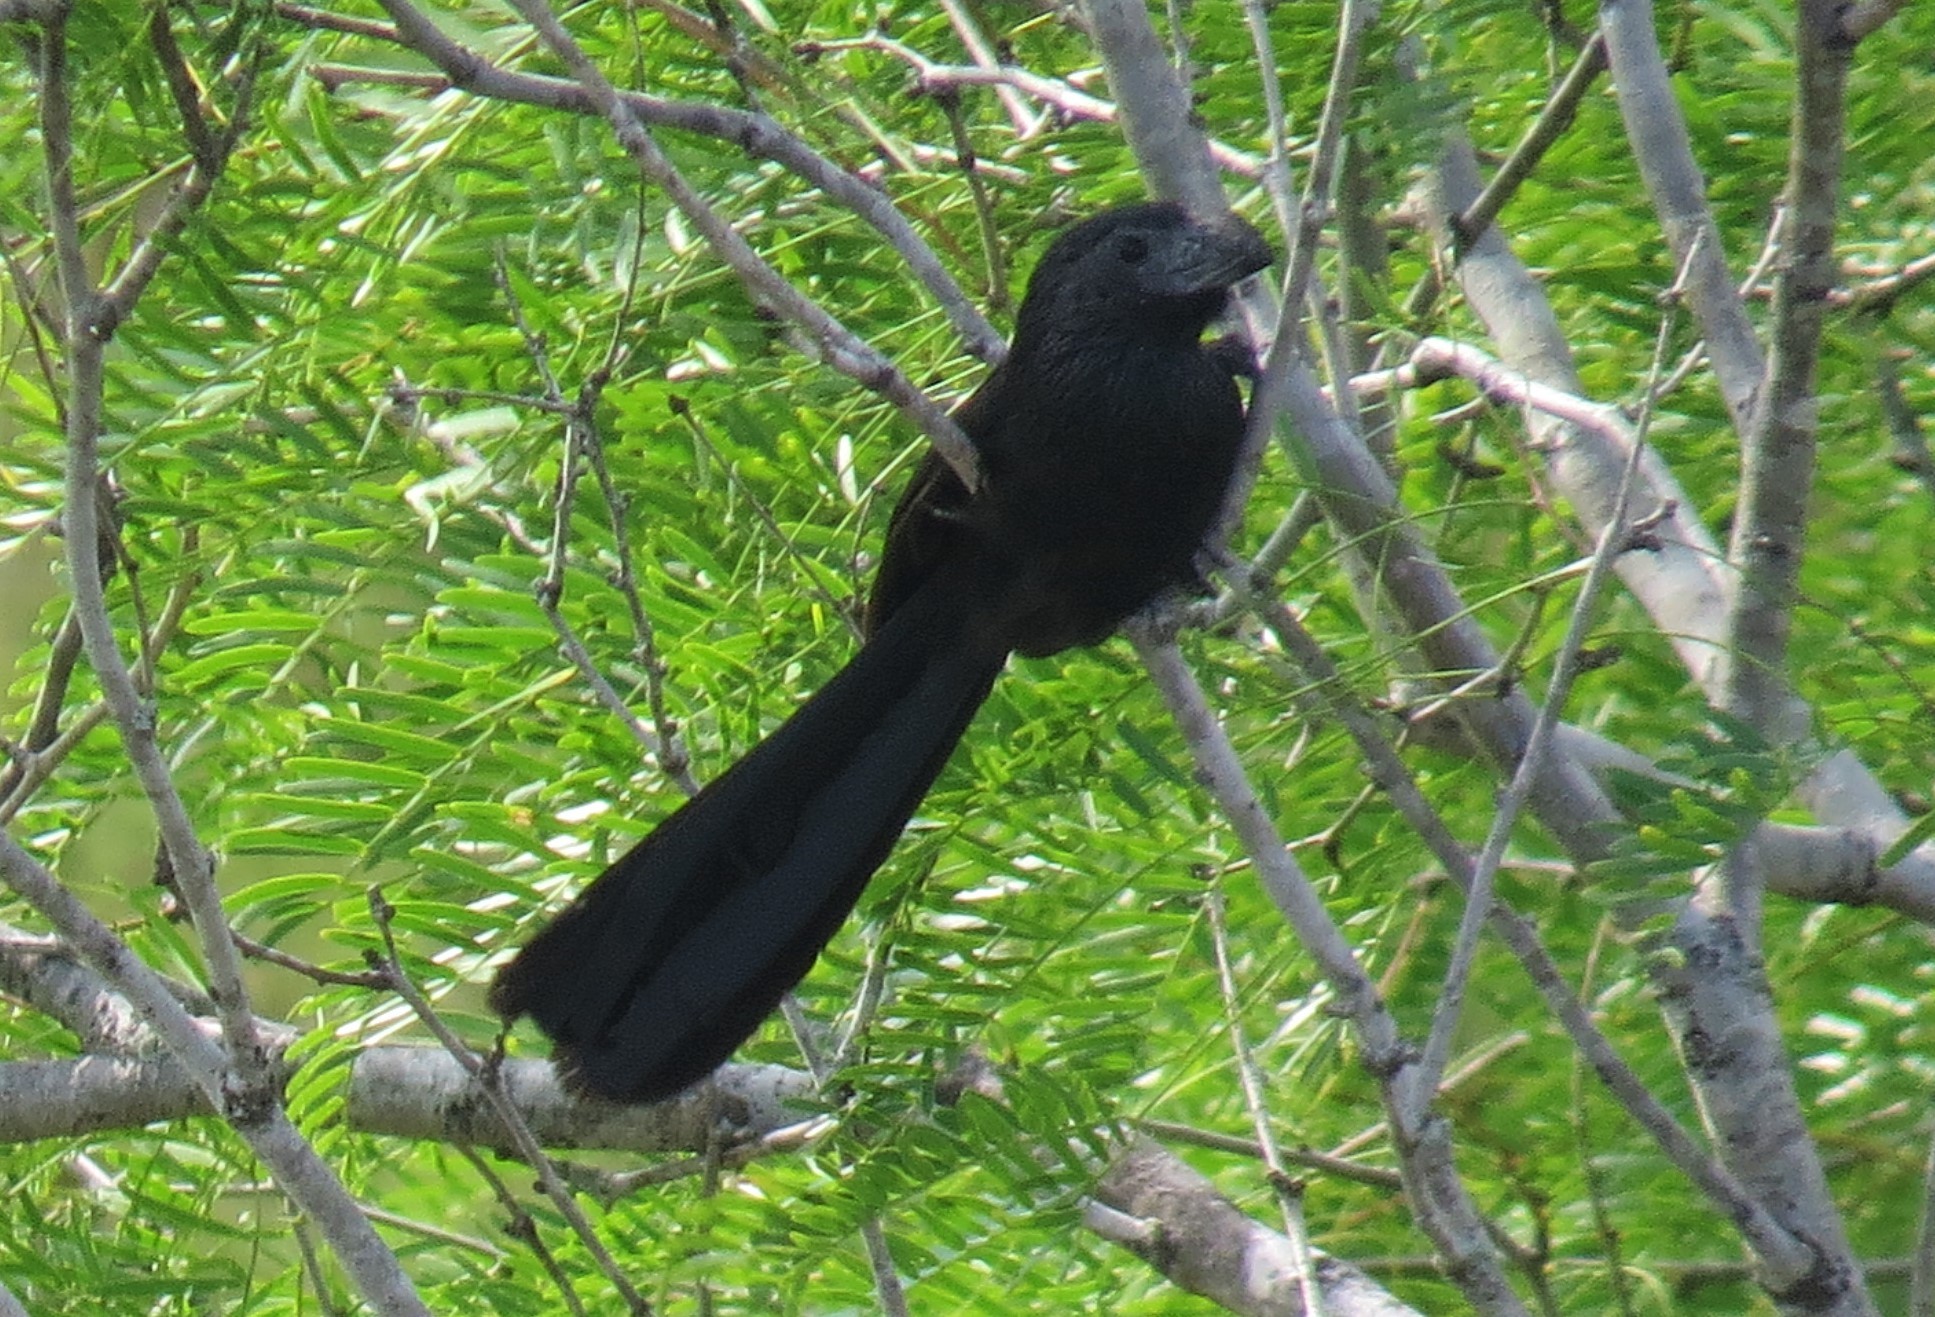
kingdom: Animalia
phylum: Chordata
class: Aves
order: Cuculiformes
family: Cuculidae
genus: Crotophaga
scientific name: Crotophaga sulcirostris
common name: Groove-billed ani
